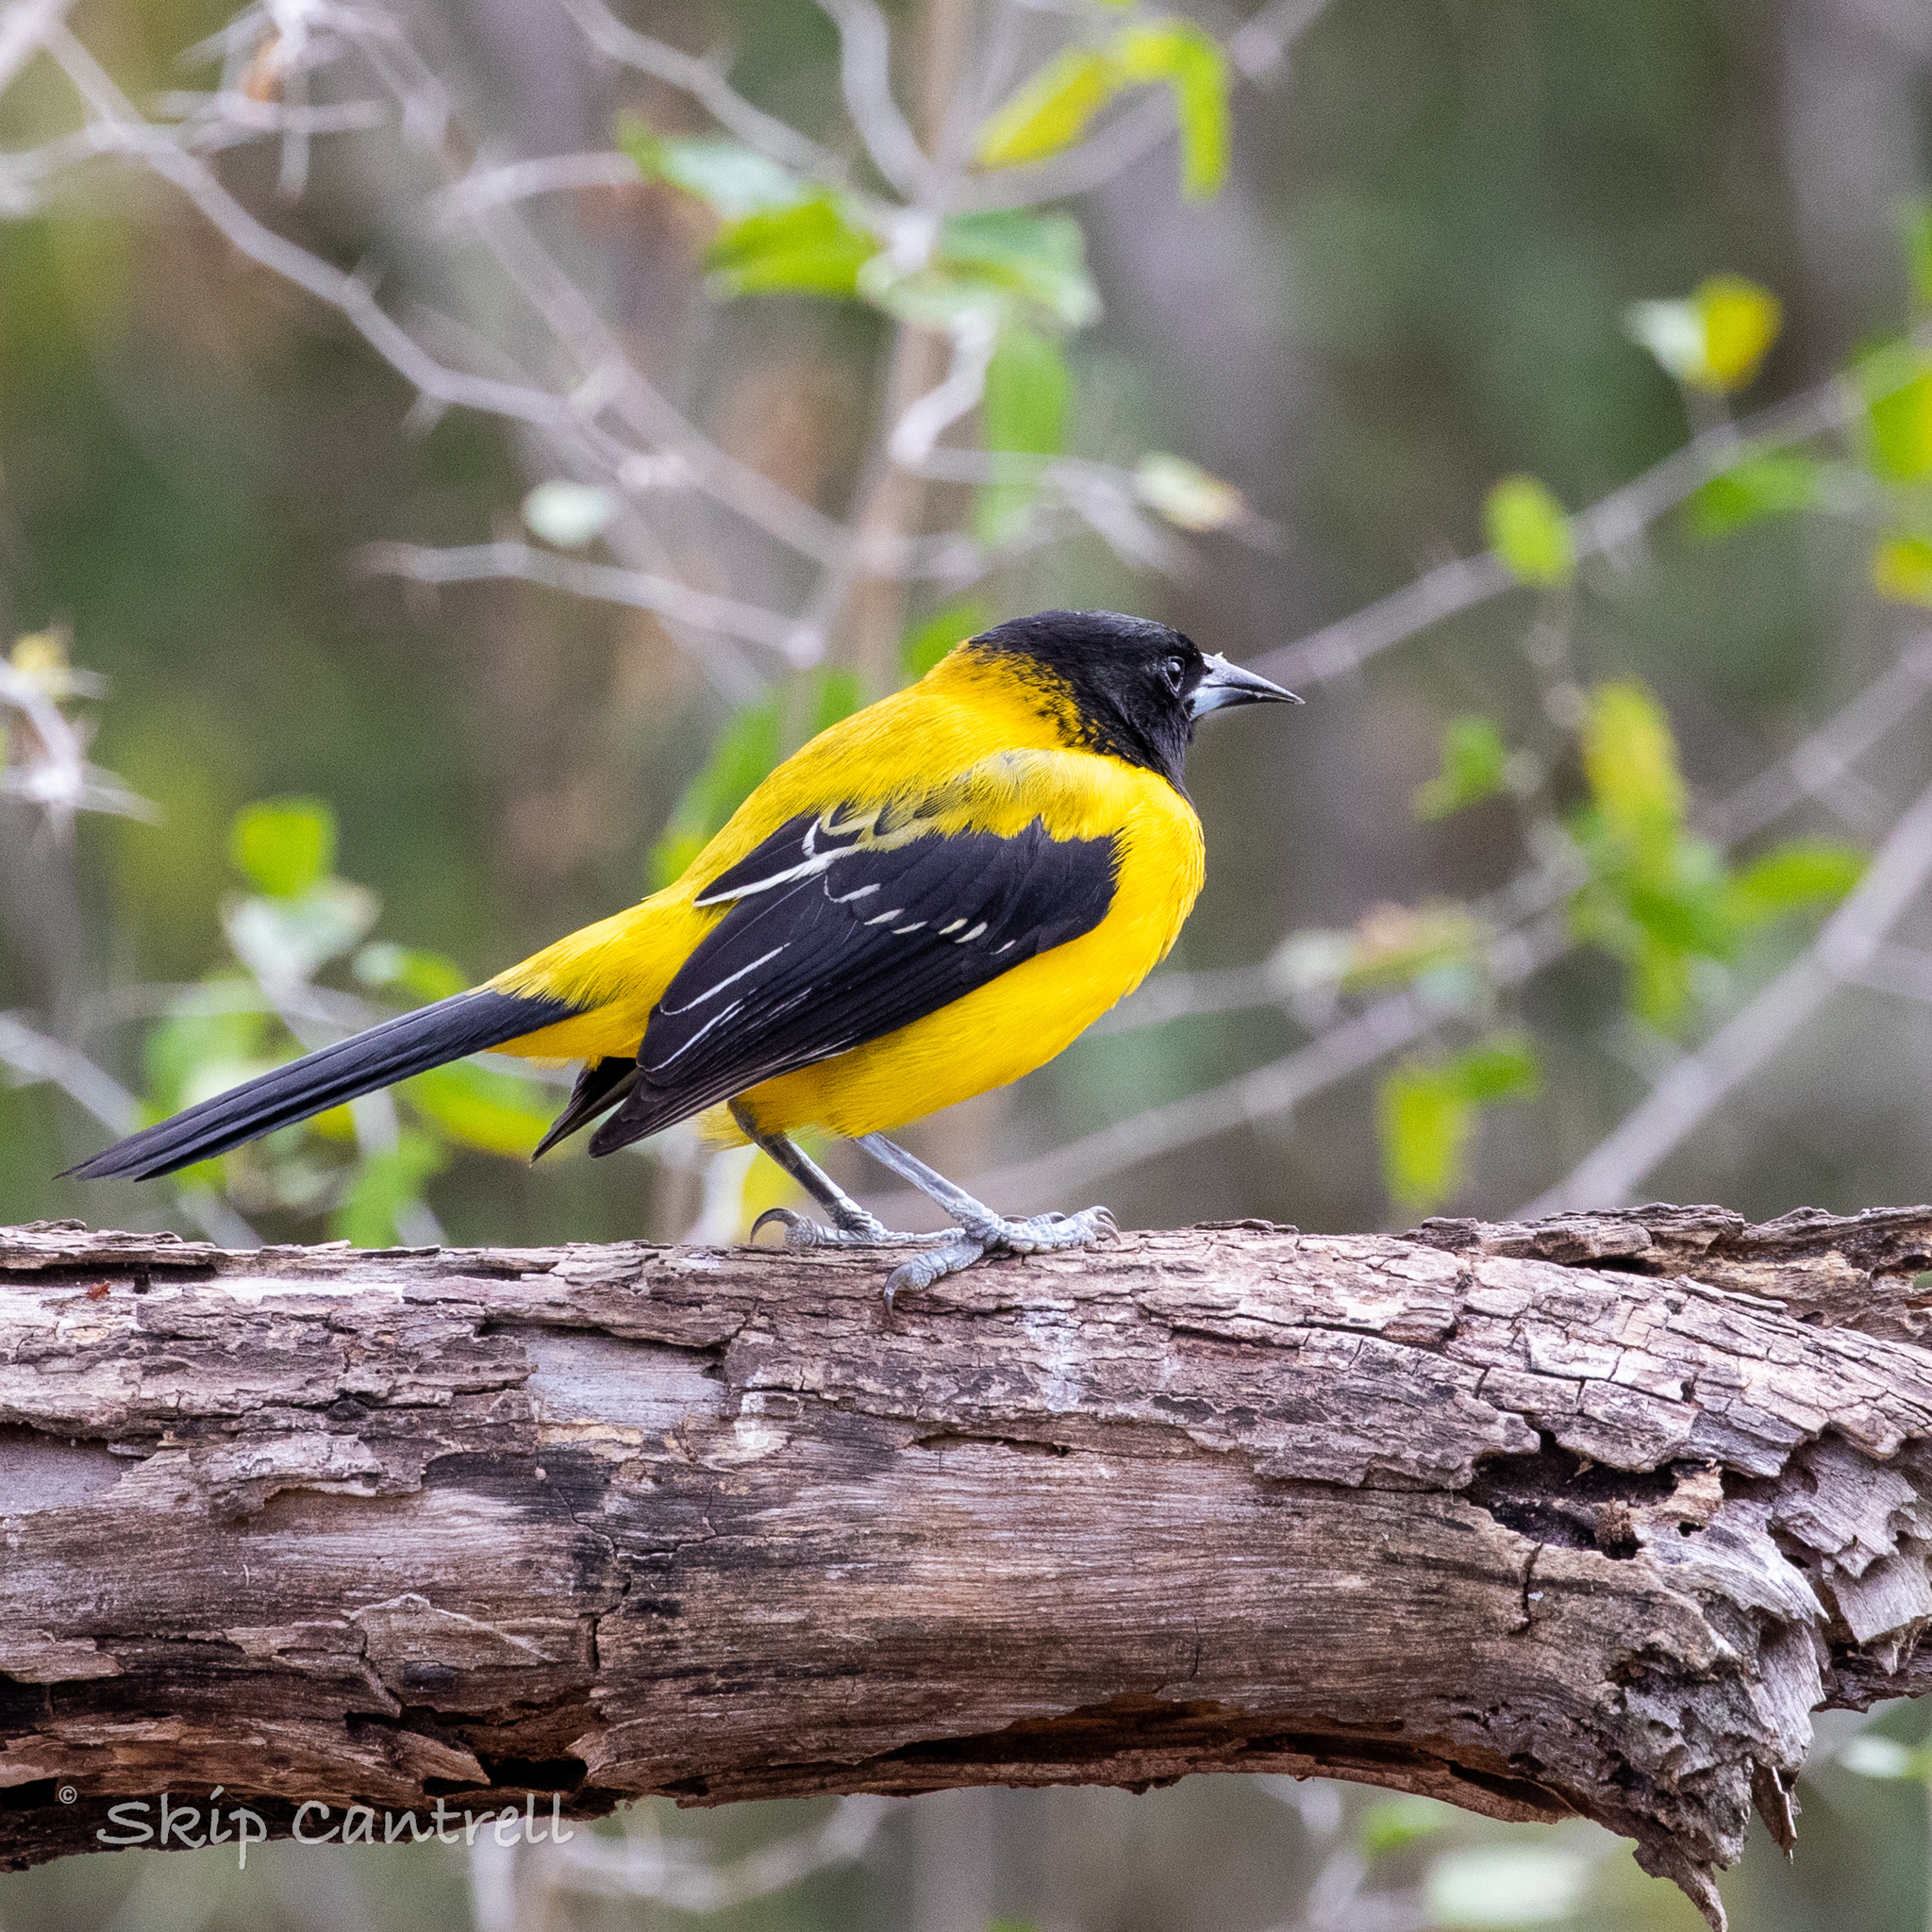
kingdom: Animalia
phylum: Chordata
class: Aves
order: Passeriformes
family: Icteridae
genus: Icterus
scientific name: Icterus graduacauda
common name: Audubon's oriole
